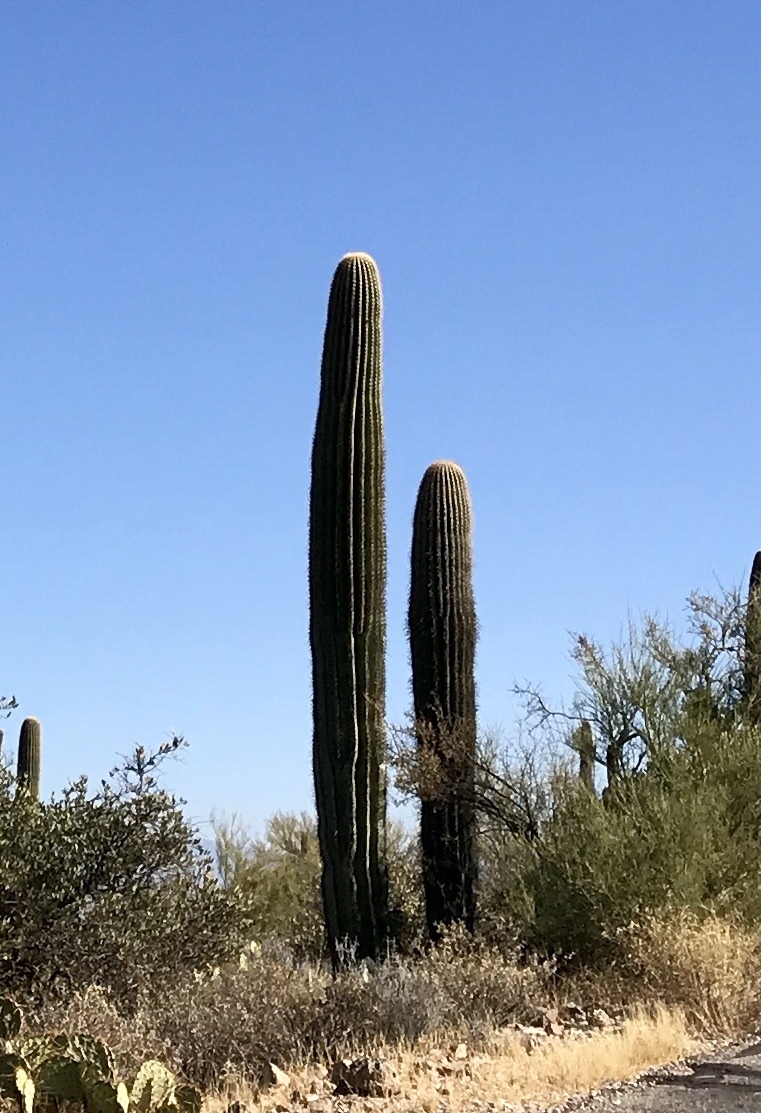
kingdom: Plantae
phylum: Tracheophyta
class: Magnoliopsida
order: Caryophyllales
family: Cactaceae
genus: Carnegiea
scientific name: Carnegiea gigantea
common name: Saguaro
